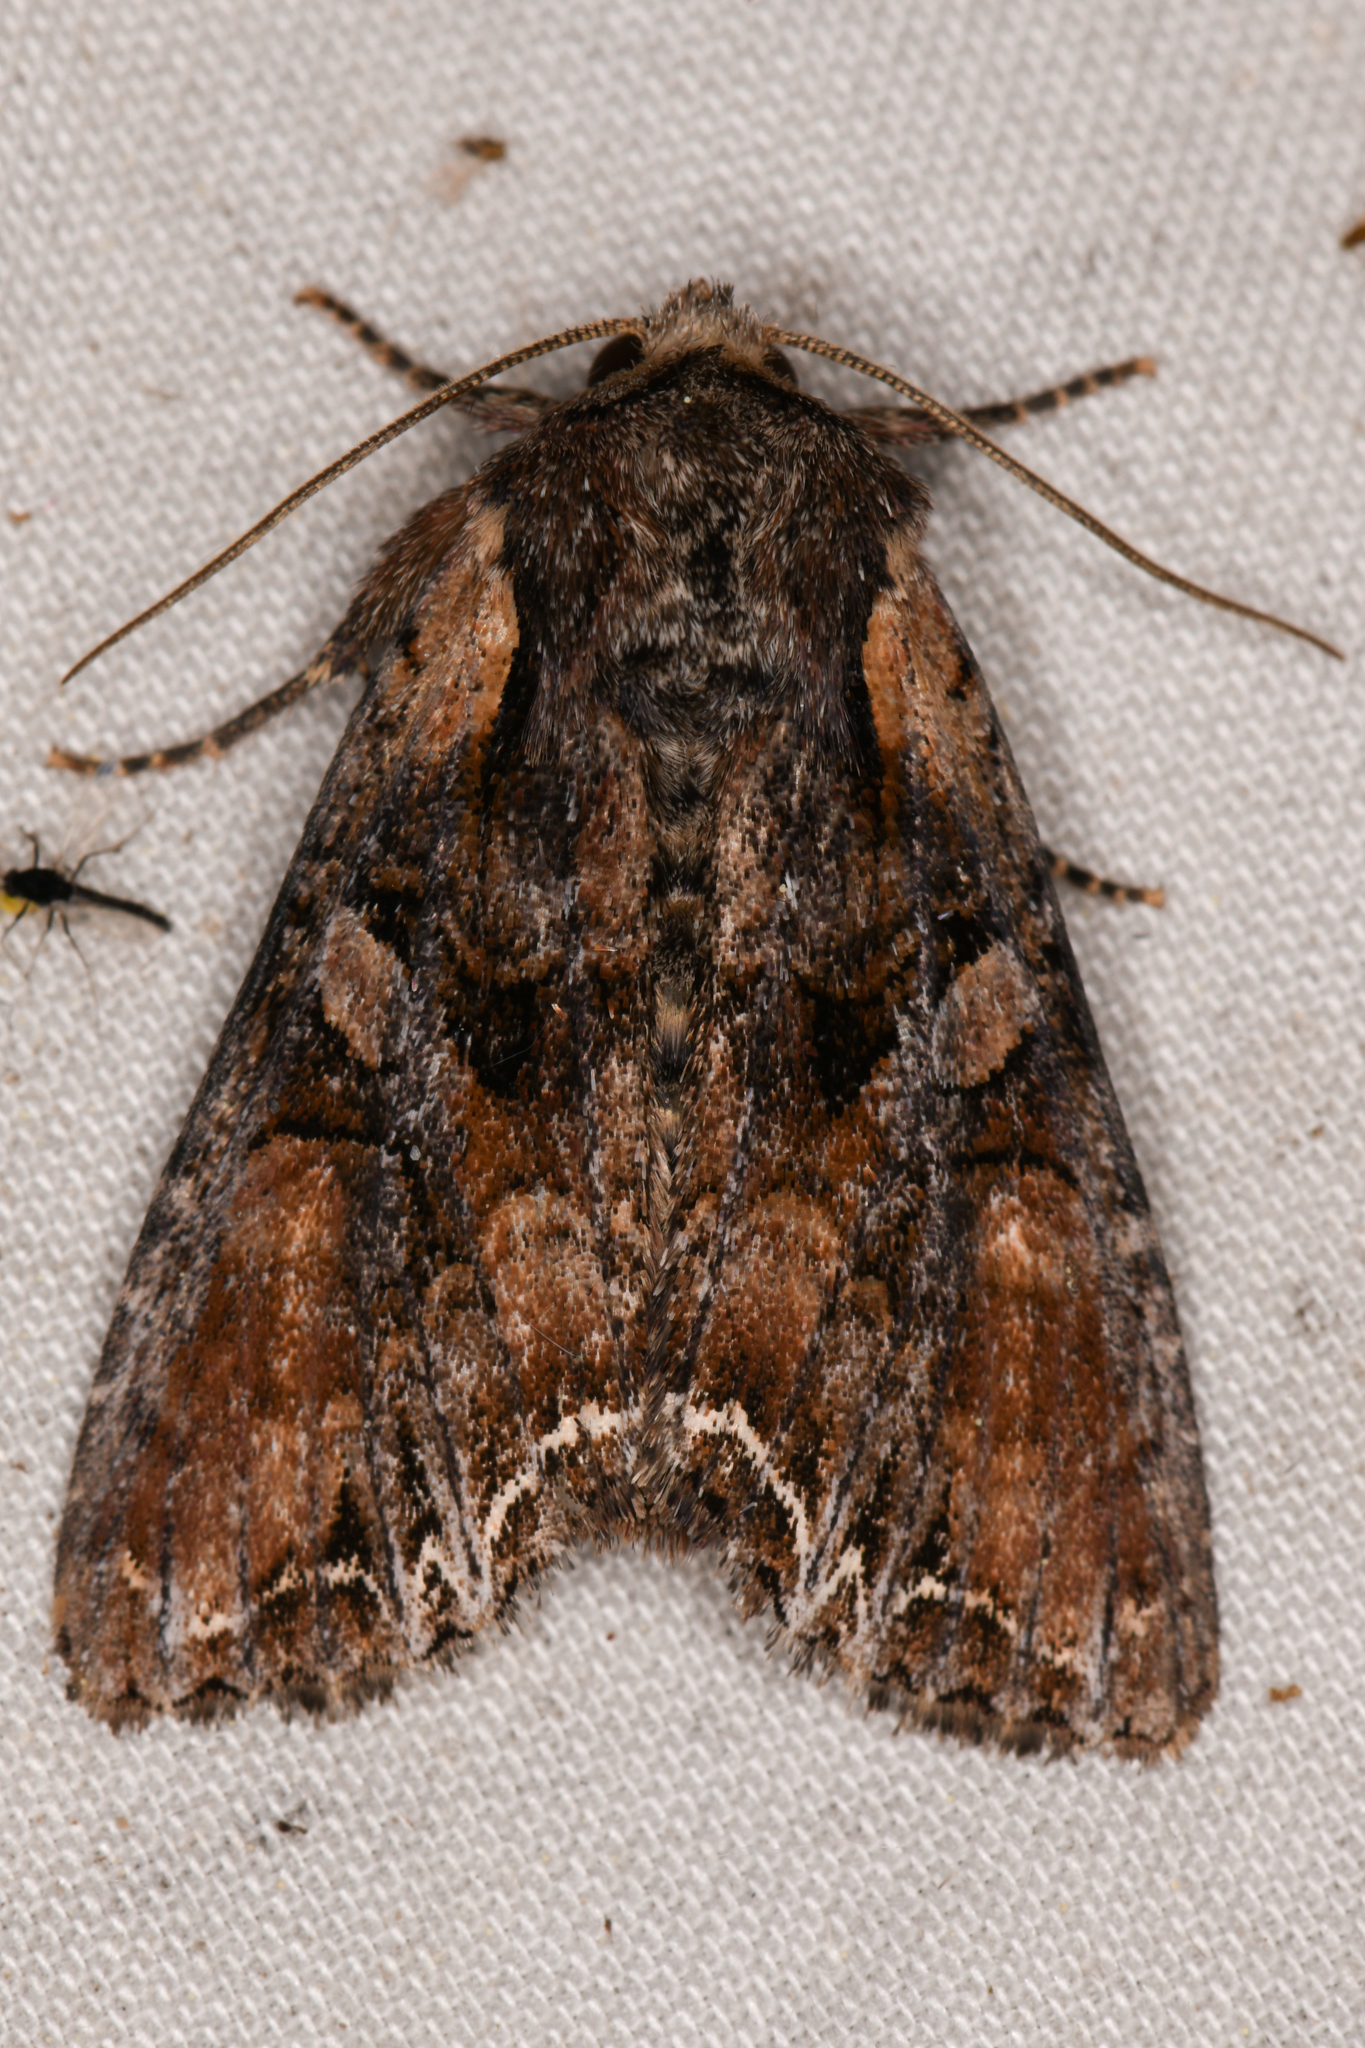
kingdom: Animalia
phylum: Arthropoda
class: Insecta
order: Lepidoptera
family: Noctuidae
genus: Lacanobia
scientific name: Lacanobia nevadae
